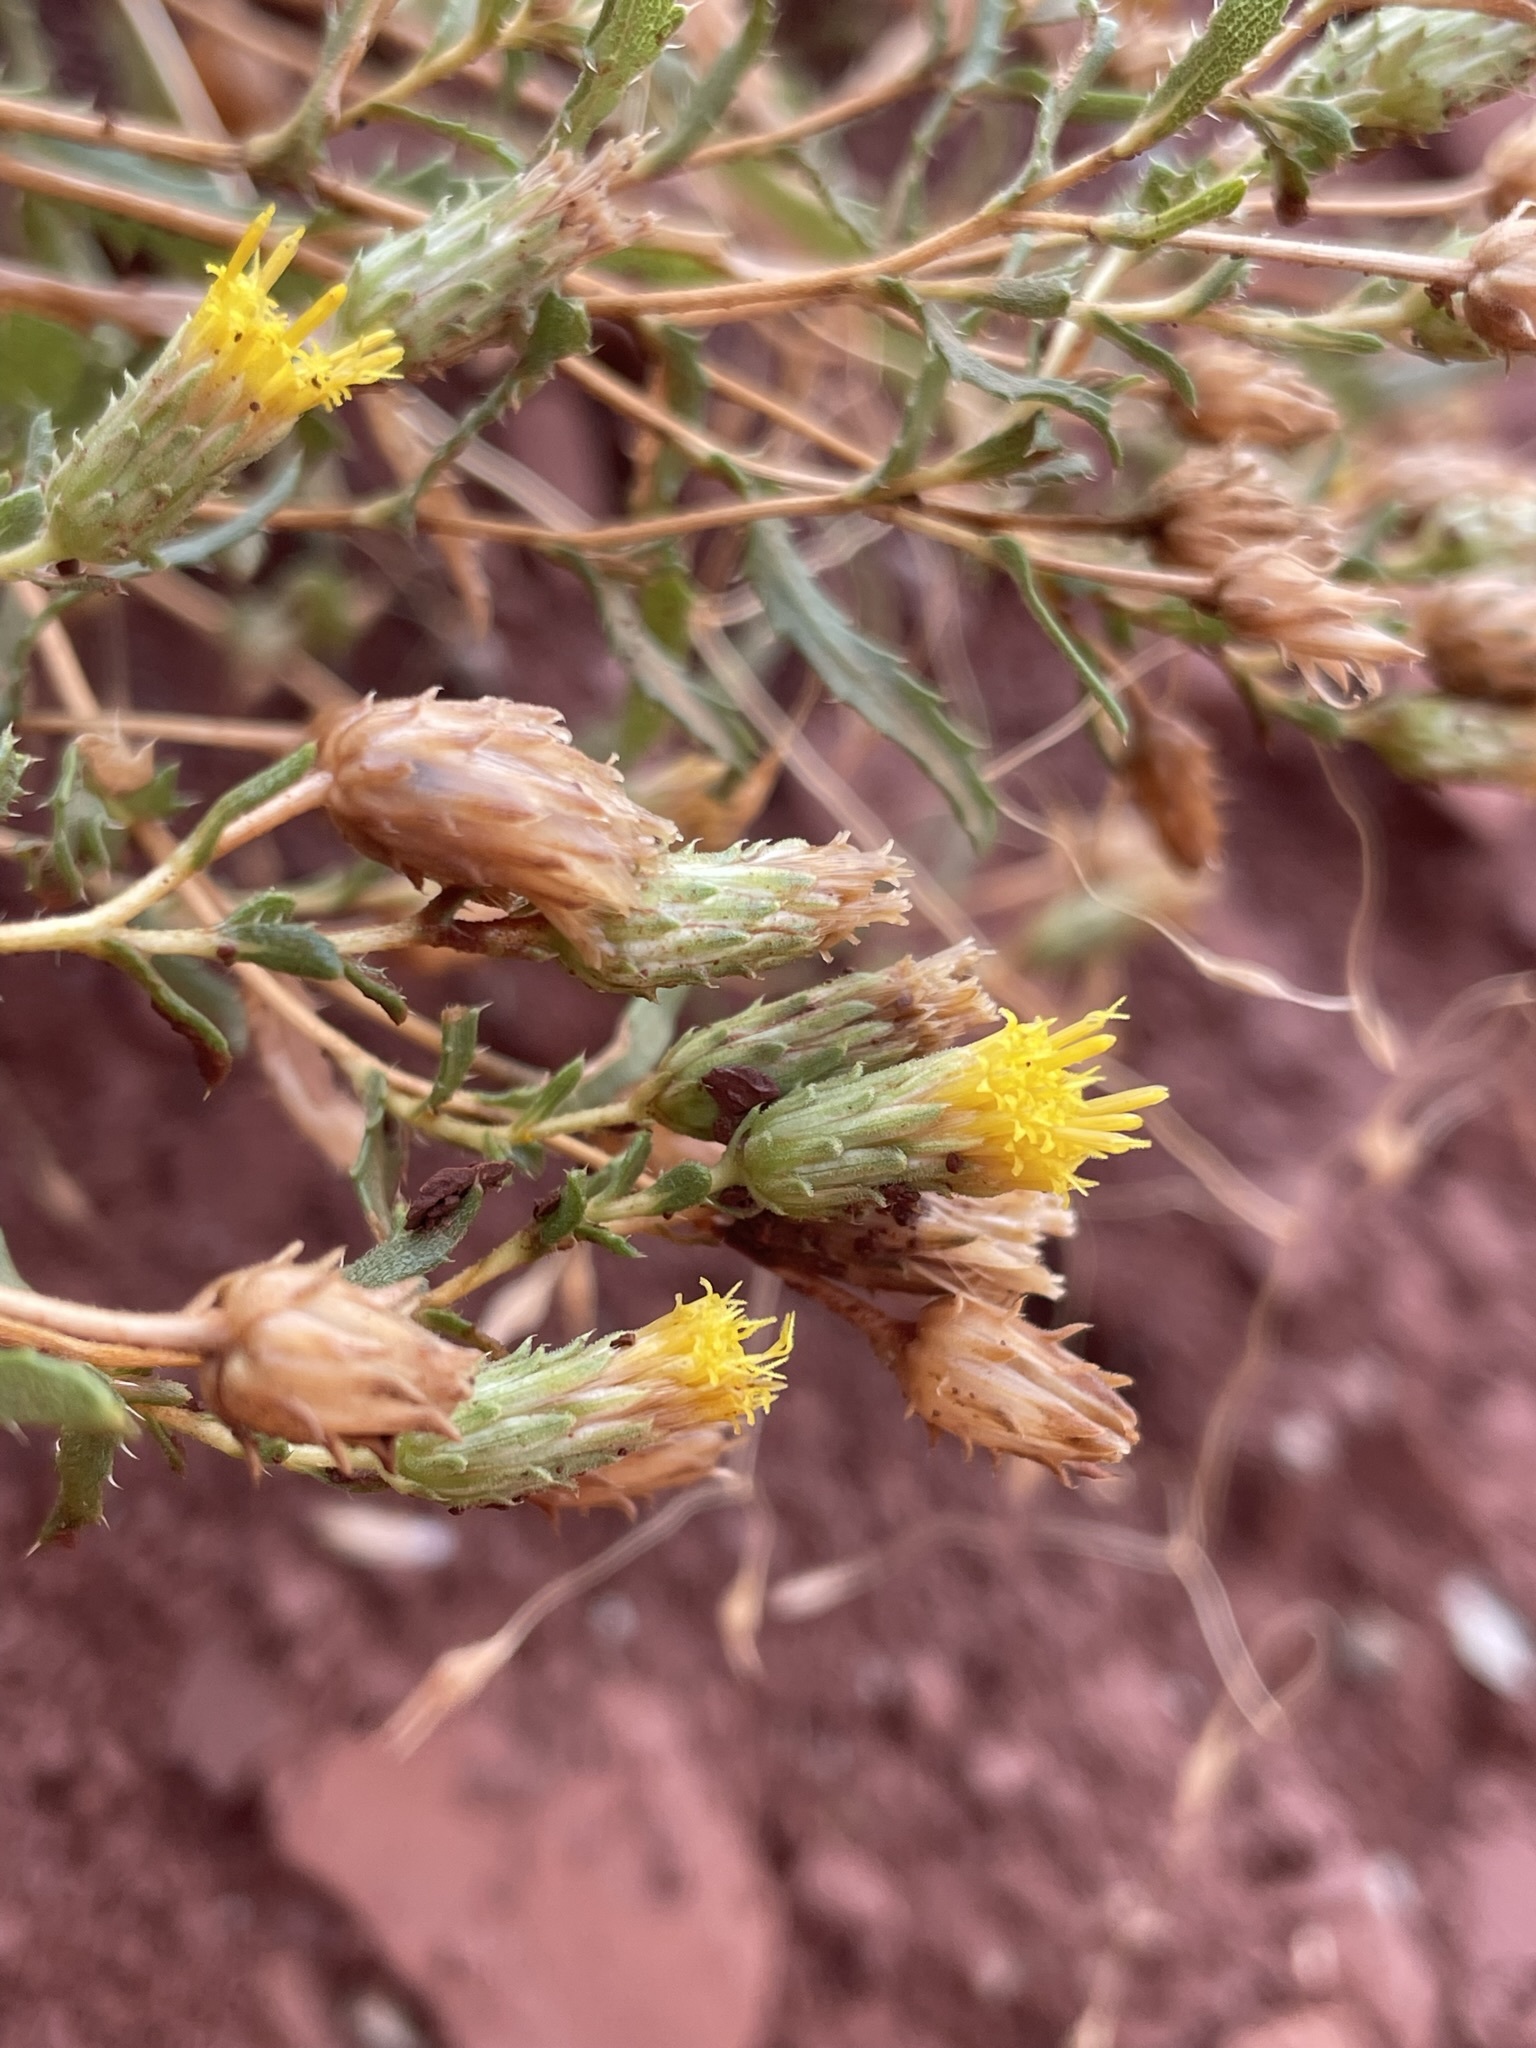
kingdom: Plantae
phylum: Tracheophyta
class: Magnoliopsida
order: Asterales
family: Asteraceae
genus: Xanthisma
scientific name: Xanthisma grindelioides
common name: Goldenweed
